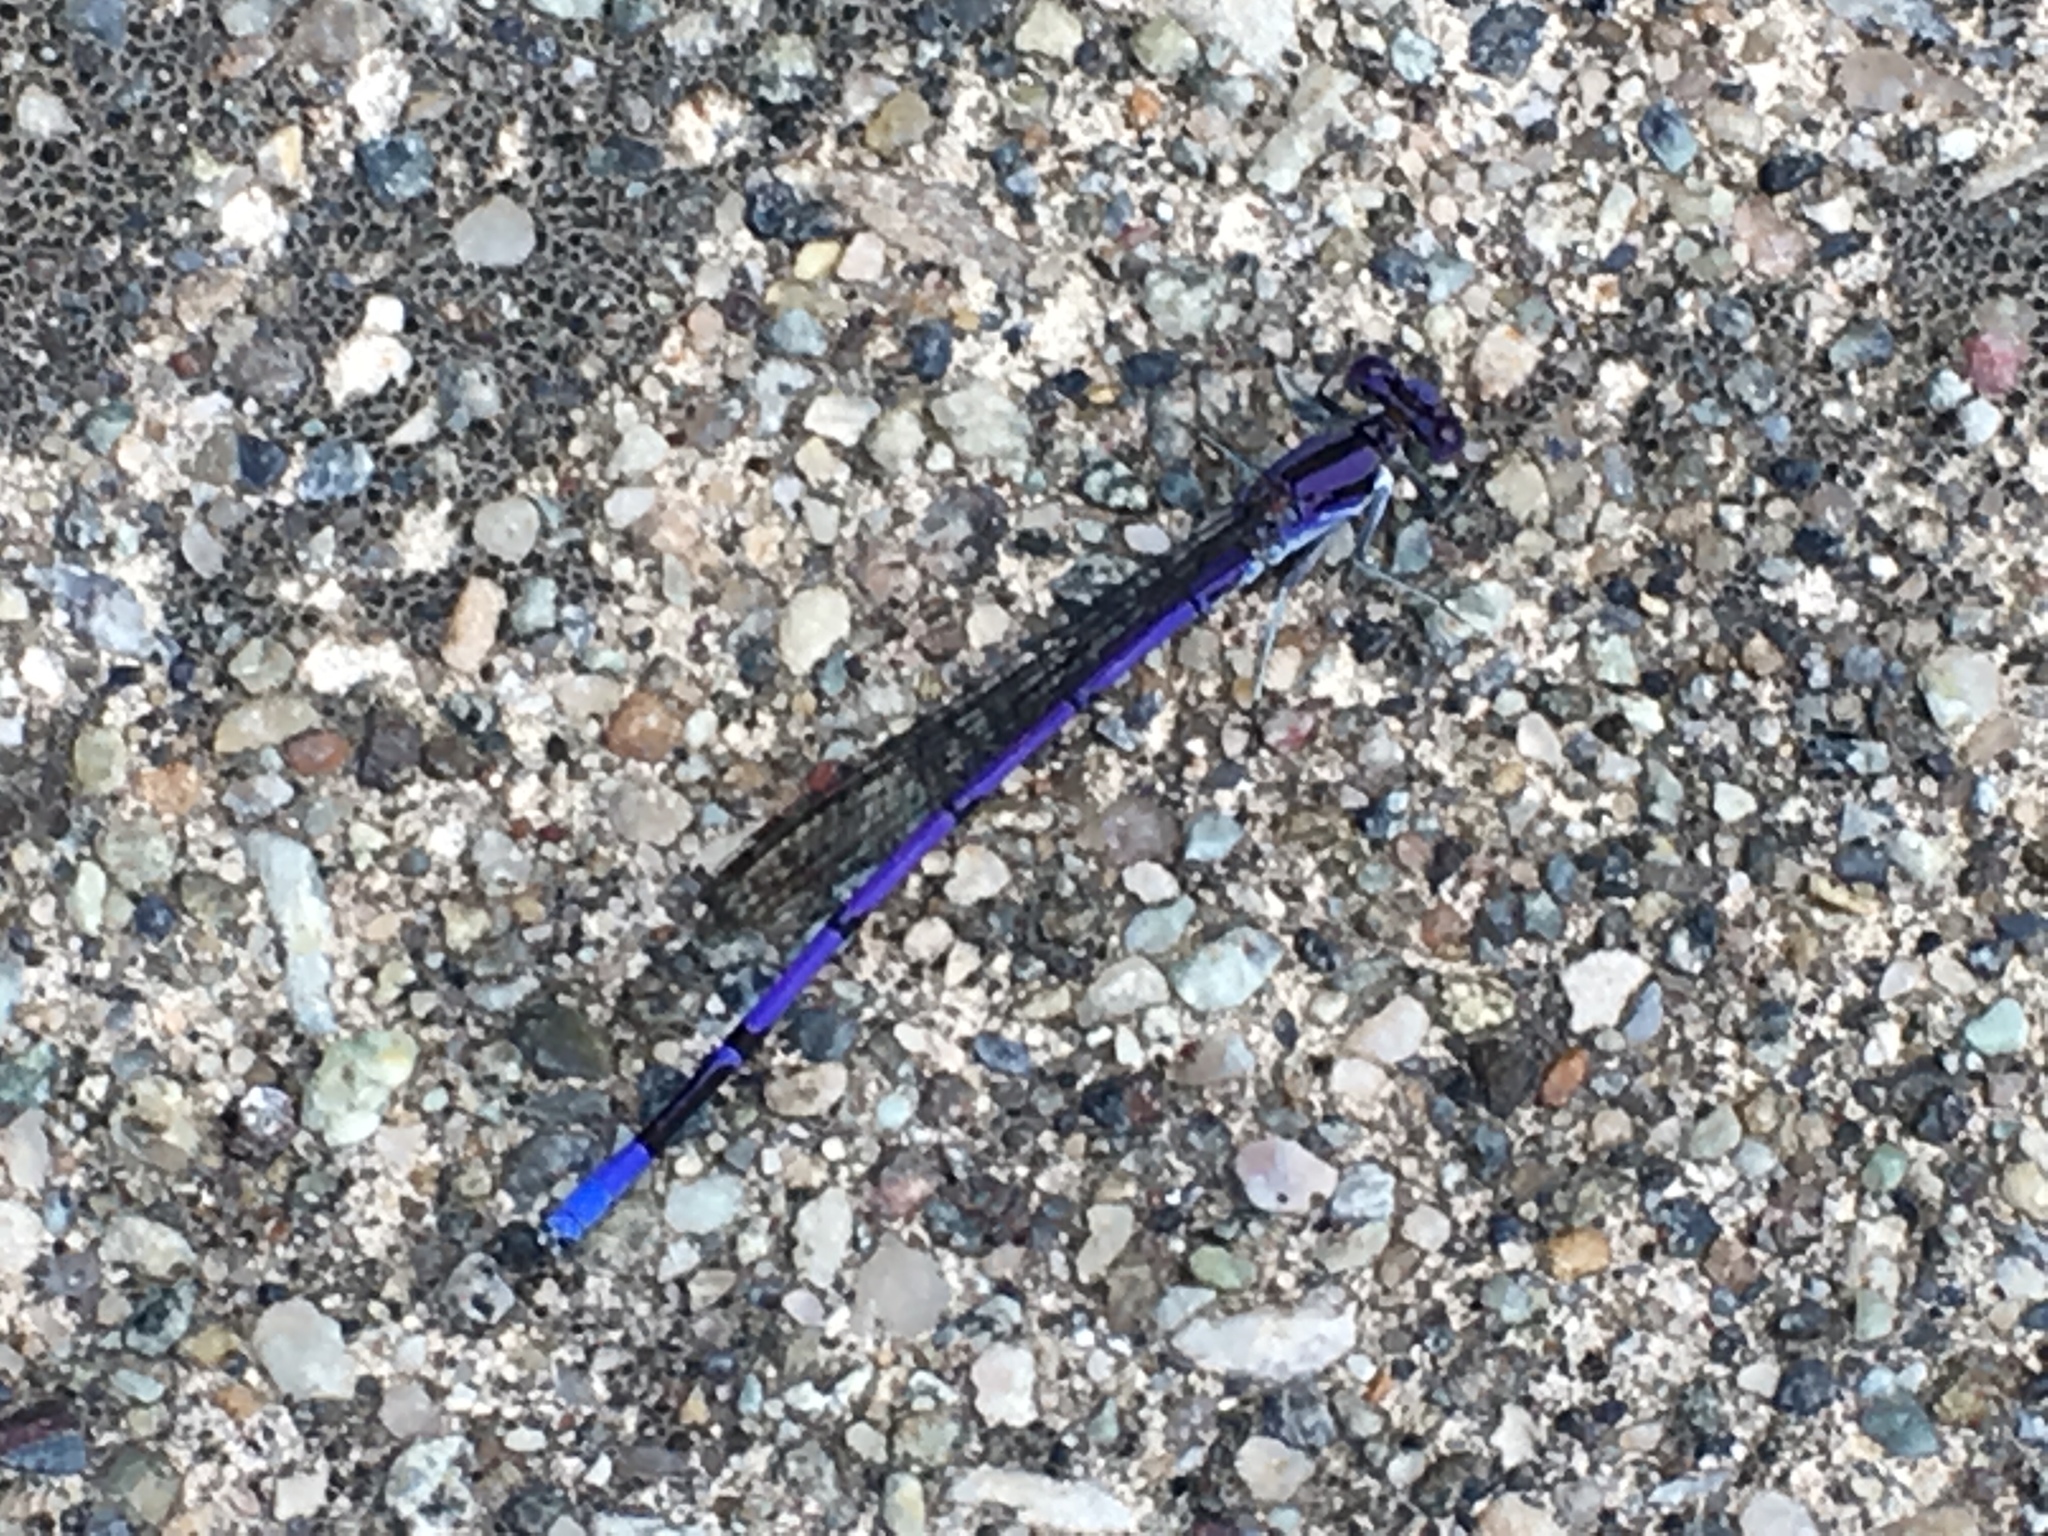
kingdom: Animalia
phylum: Arthropoda
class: Insecta
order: Odonata
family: Coenagrionidae
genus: Argia
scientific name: Argia fumipennis
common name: Variable dancer
